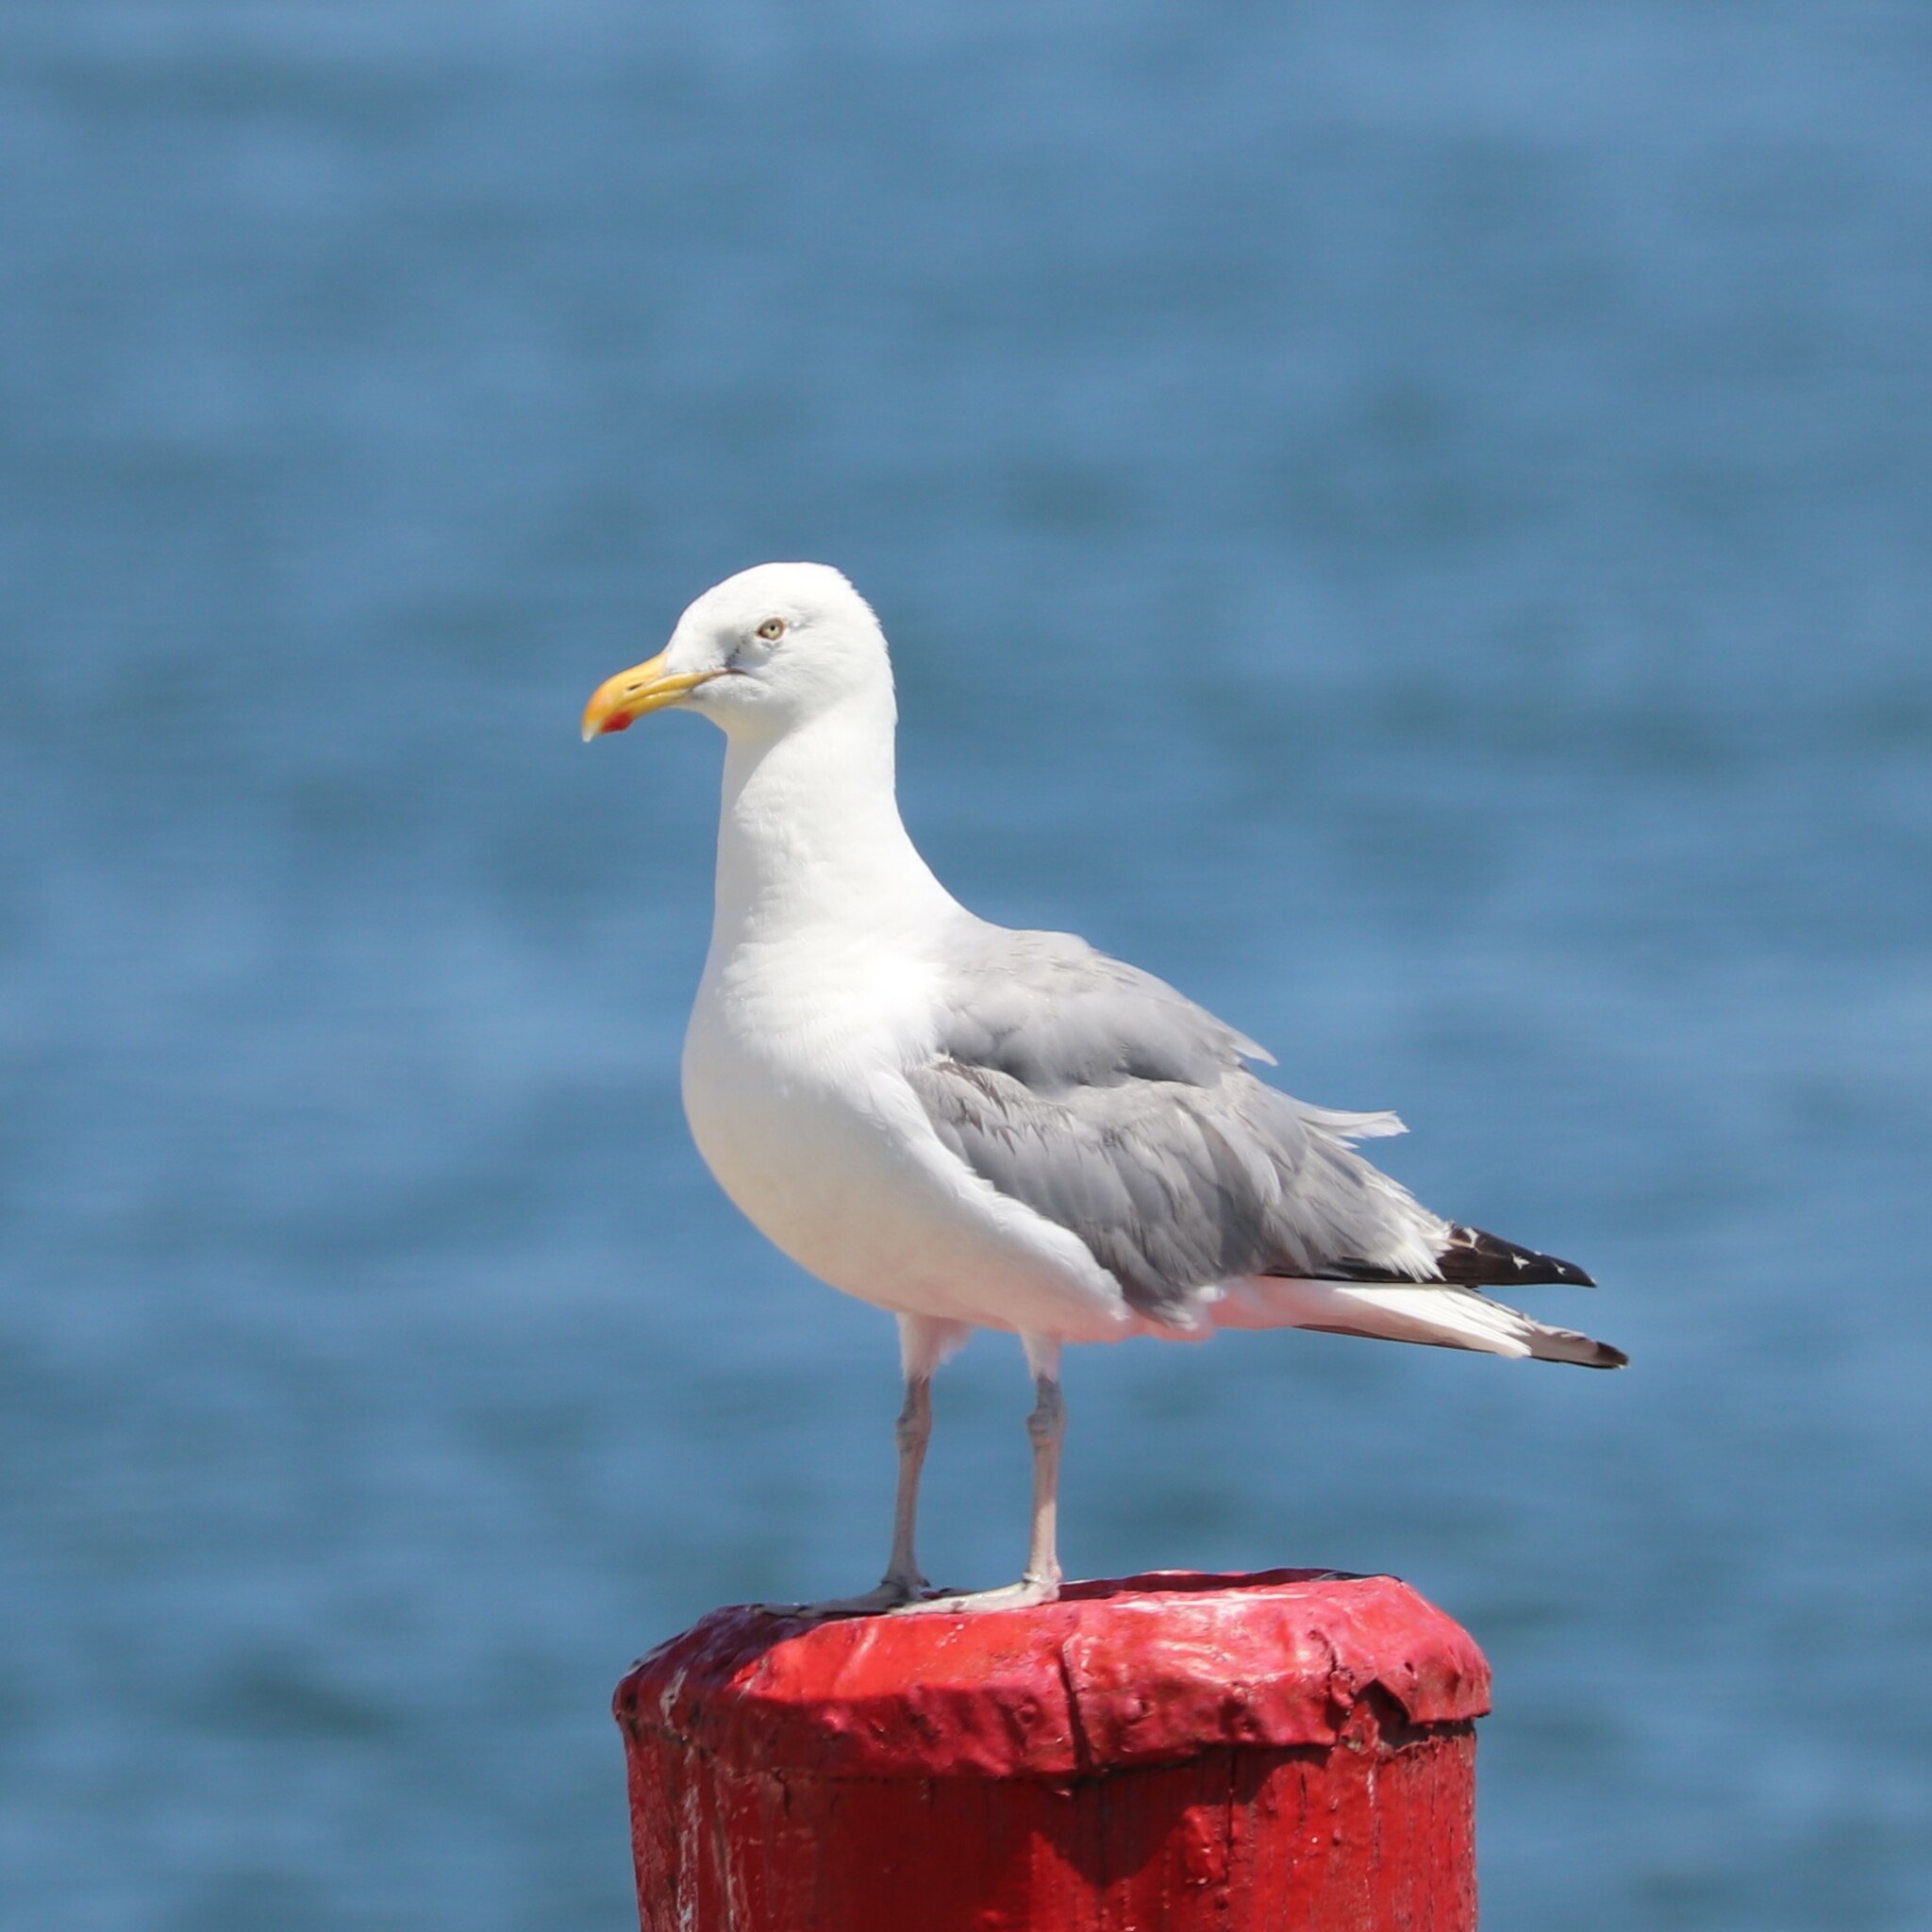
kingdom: Animalia
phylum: Chordata
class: Aves
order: Charadriiformes
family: Laridae
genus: Larus
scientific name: Larus argentatus
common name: Herring gull
